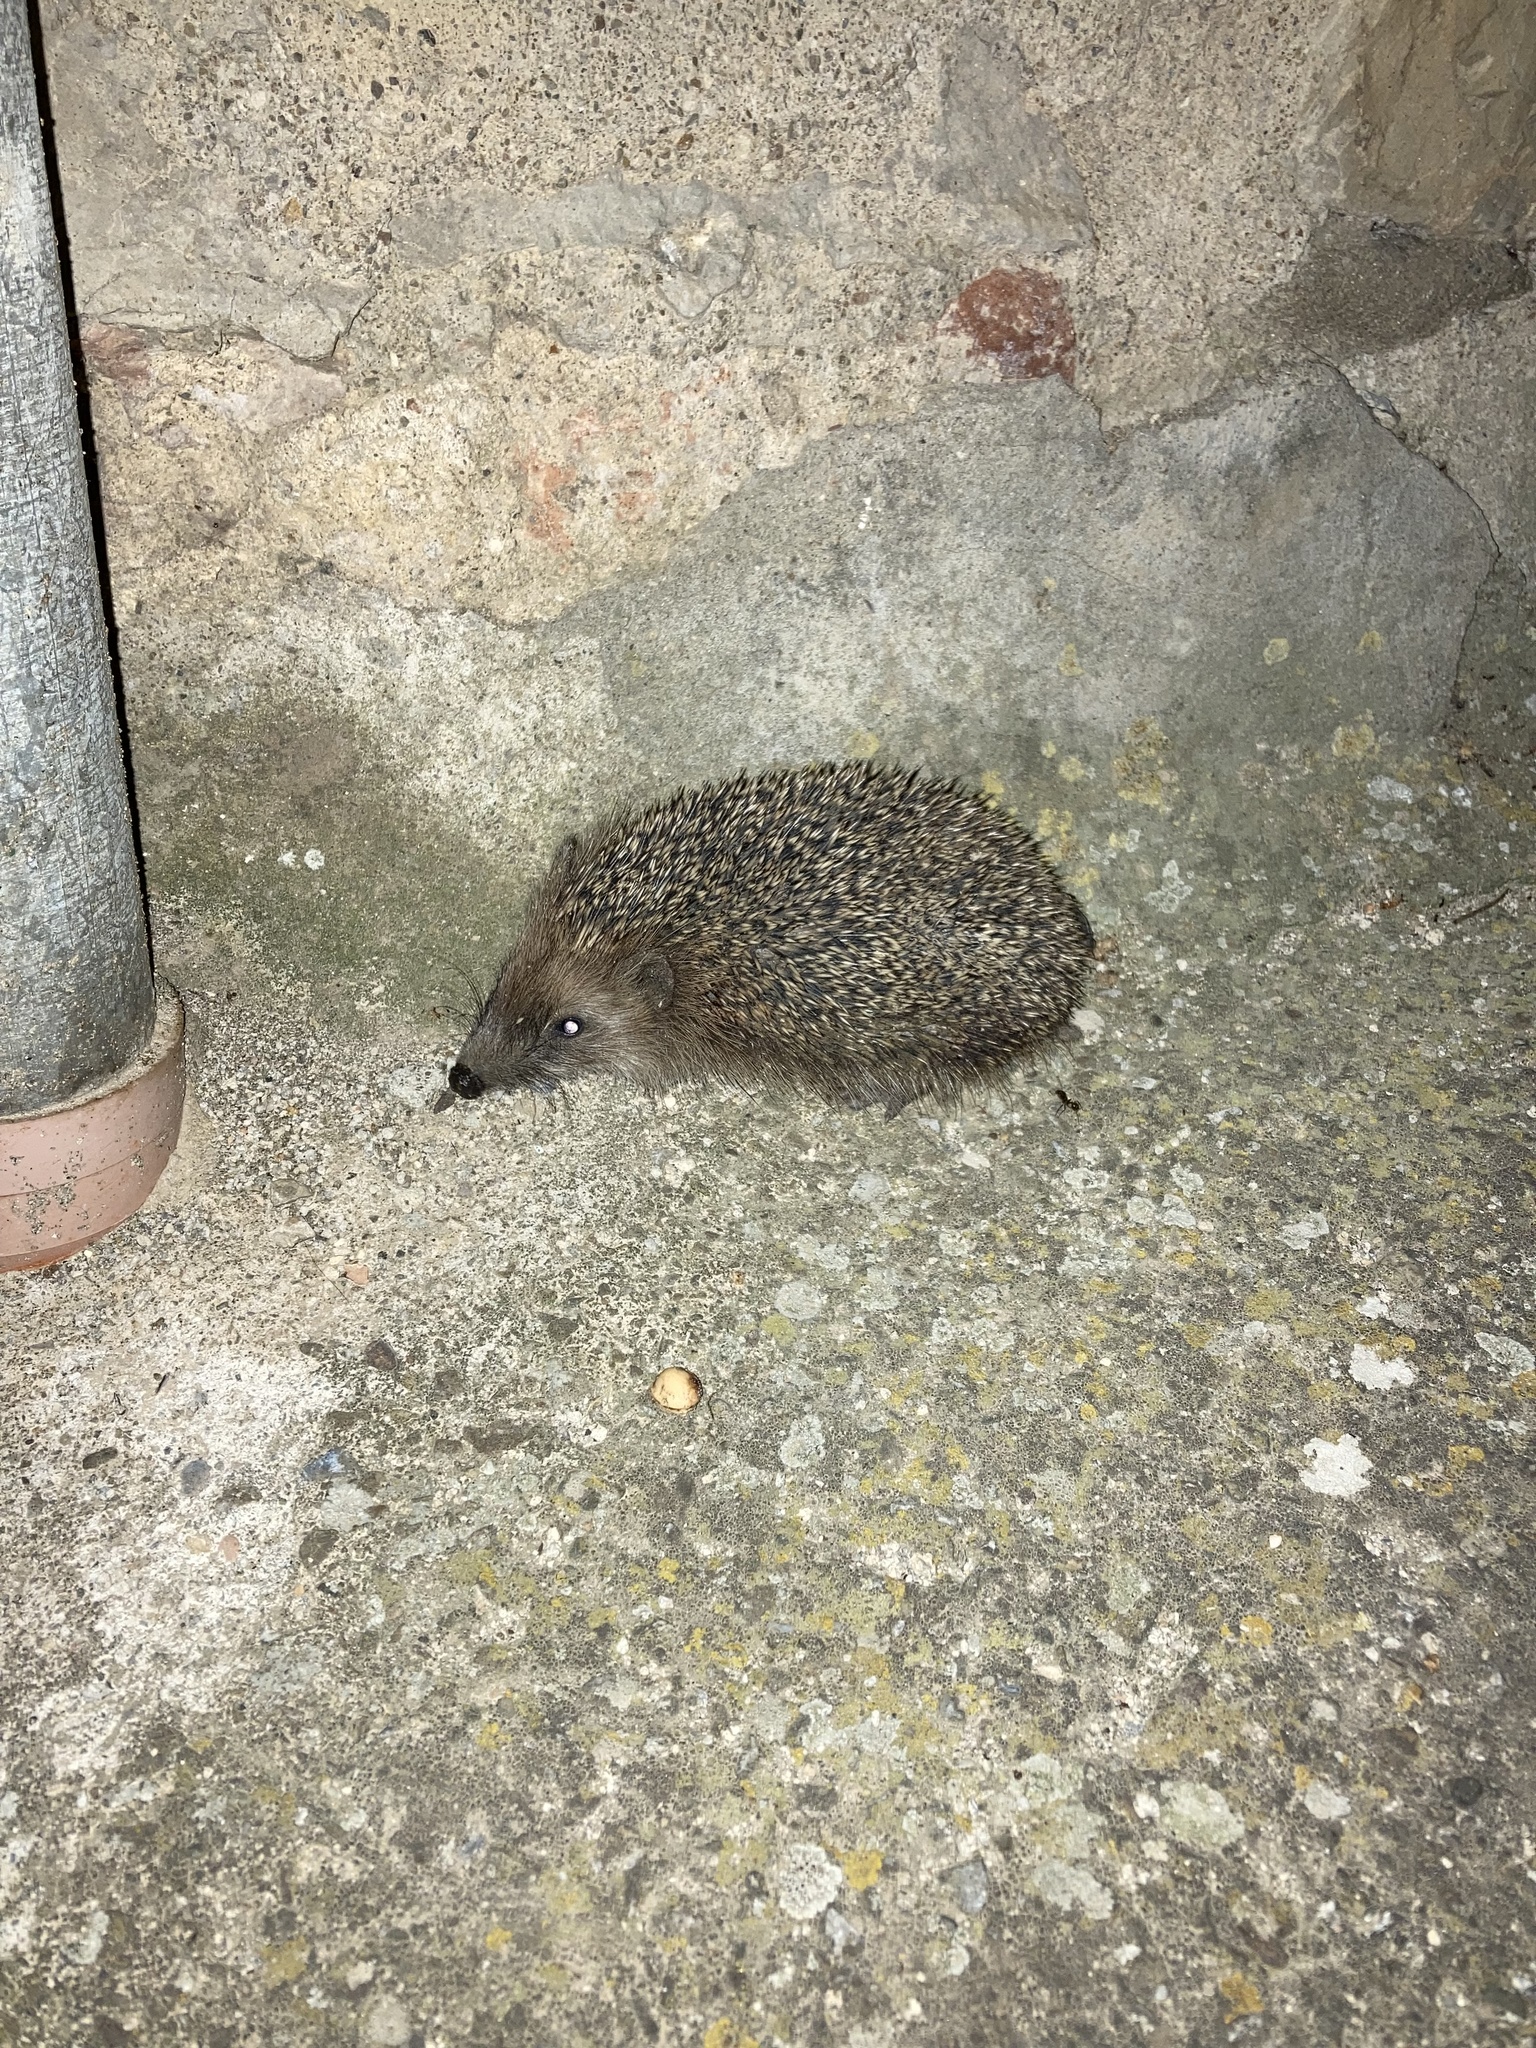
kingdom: Animalia
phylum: Chordata
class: Mammalia
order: Erinaceomorpha
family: Erinaceidae
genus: Erinaceus
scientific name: Erinaceus europaeus
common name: West european hedgehog
